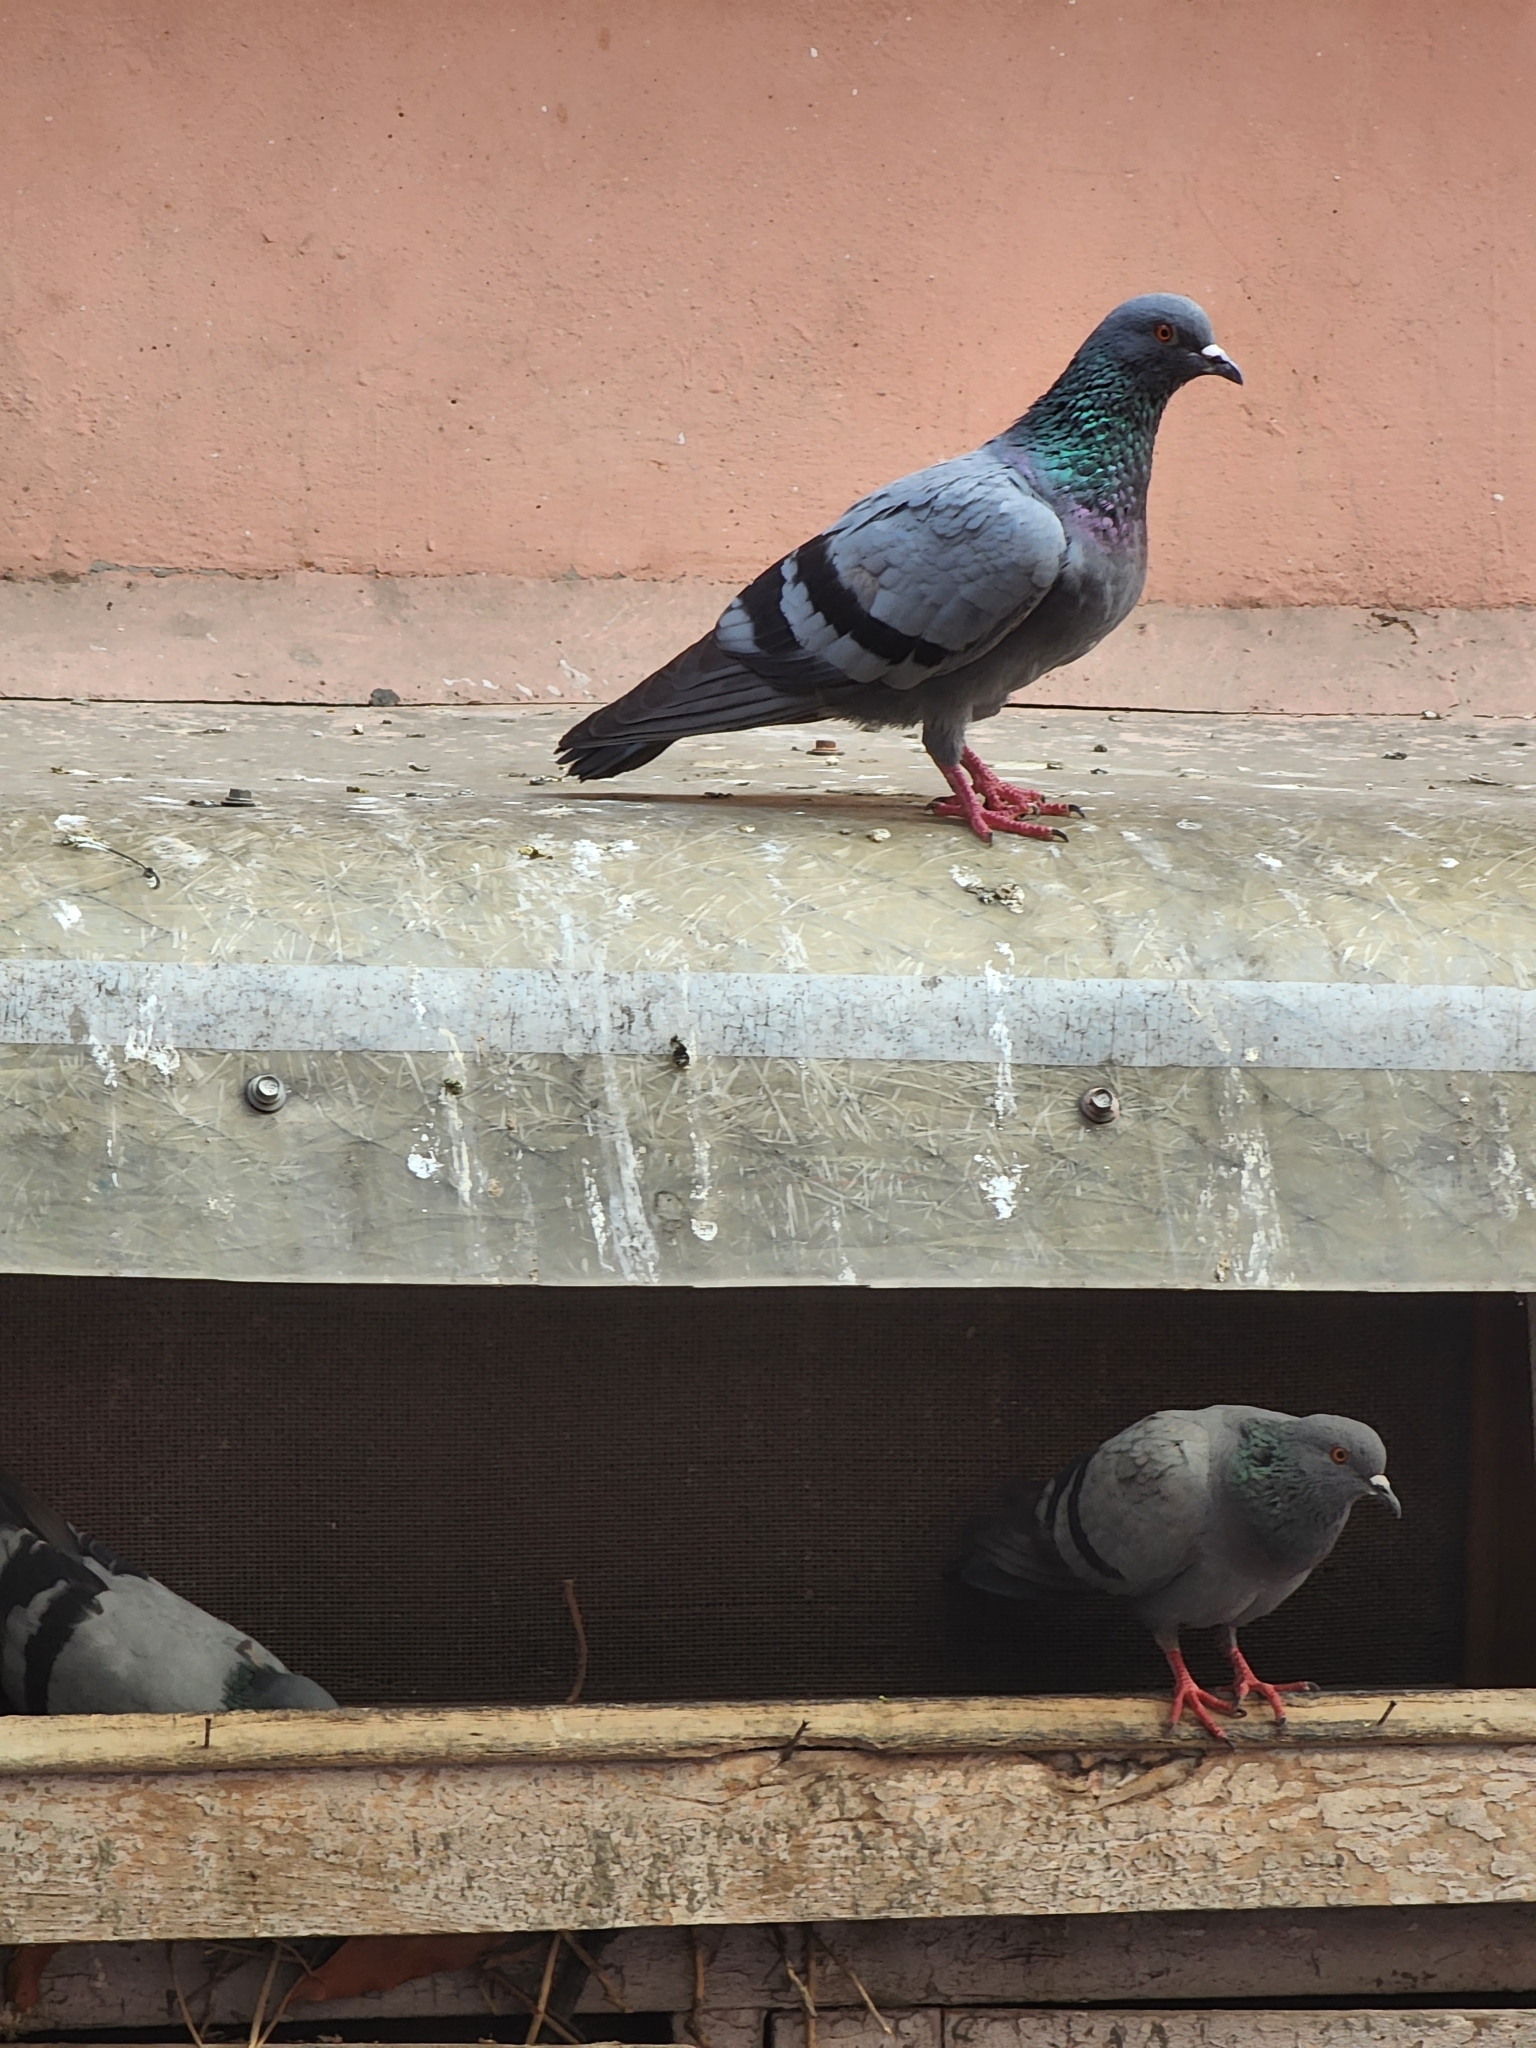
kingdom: Animalia
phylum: Chordata
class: Aves
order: Columbiformes
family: Columbidae
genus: Columba
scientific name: Columba livia
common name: Rock pigeon
